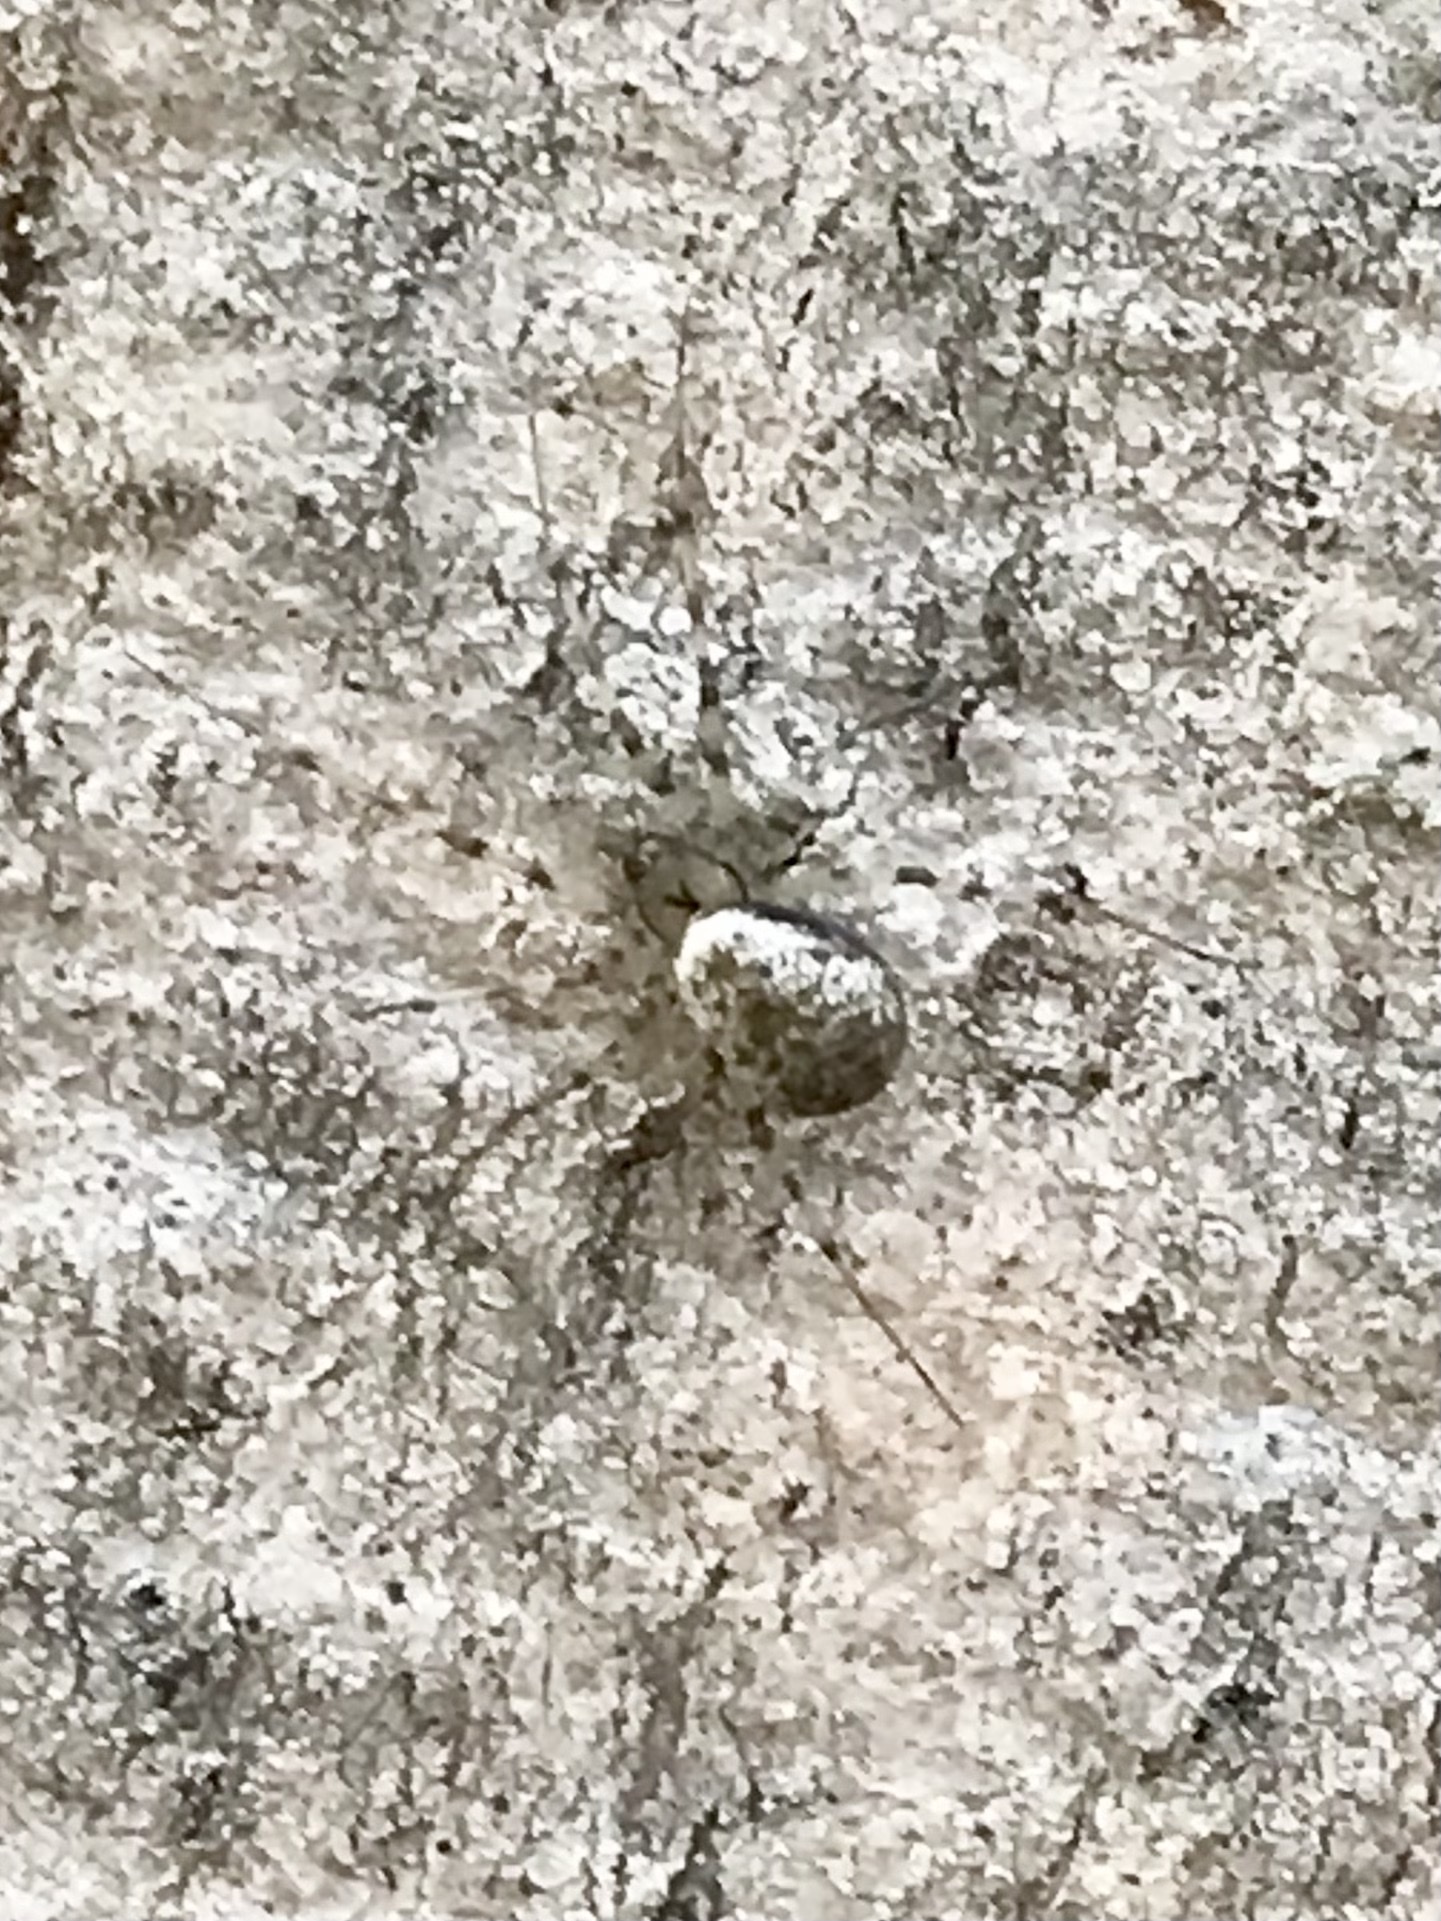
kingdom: Animalia
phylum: Arthropoda
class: Arachnida
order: Araneae
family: Linyphiidae
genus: Drapetisca
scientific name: Drapetisca alteranda
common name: Northern long-toothed sheetweaver
